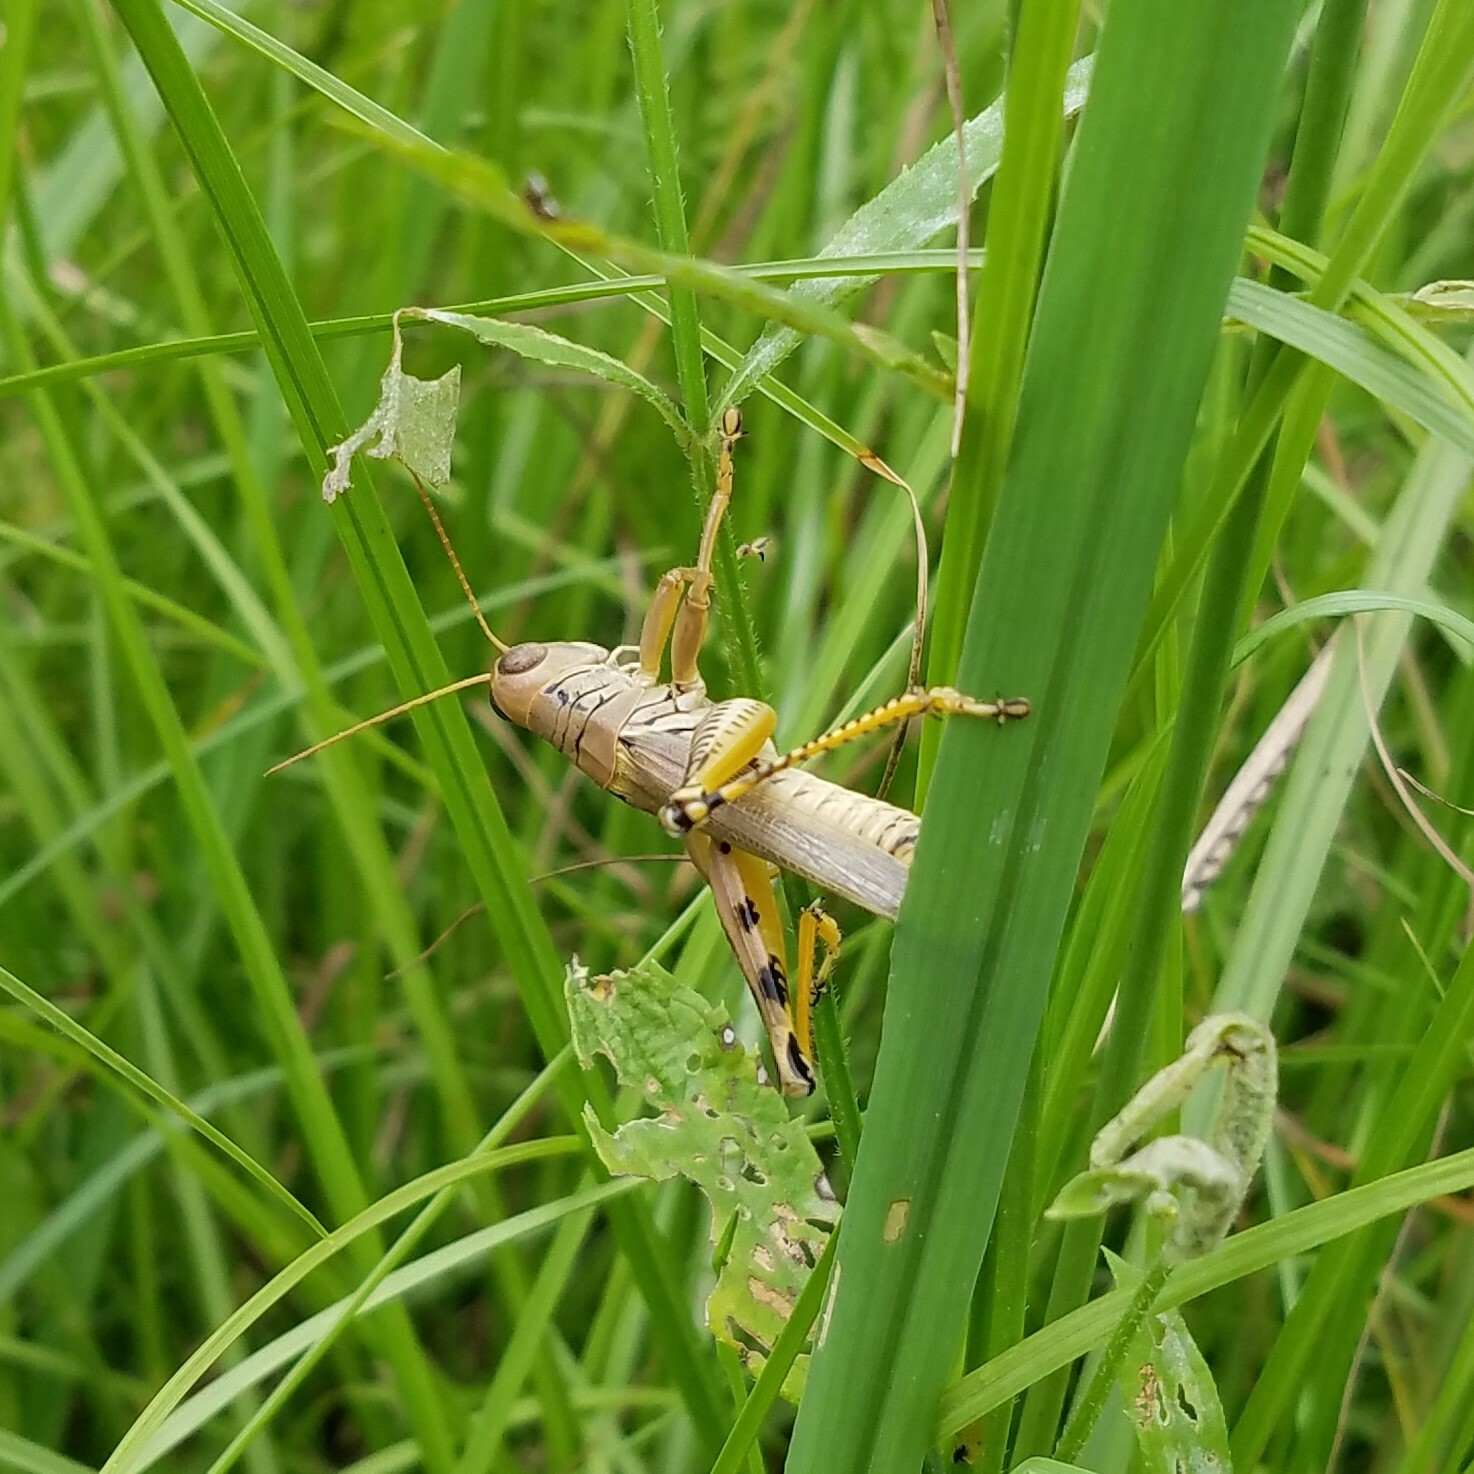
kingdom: Animalia
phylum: Arthropoda
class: Insecta
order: Orthoptera
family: Acrididae
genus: Melanoplus
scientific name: Melanoplus differentialis
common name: Differential grasshopper
